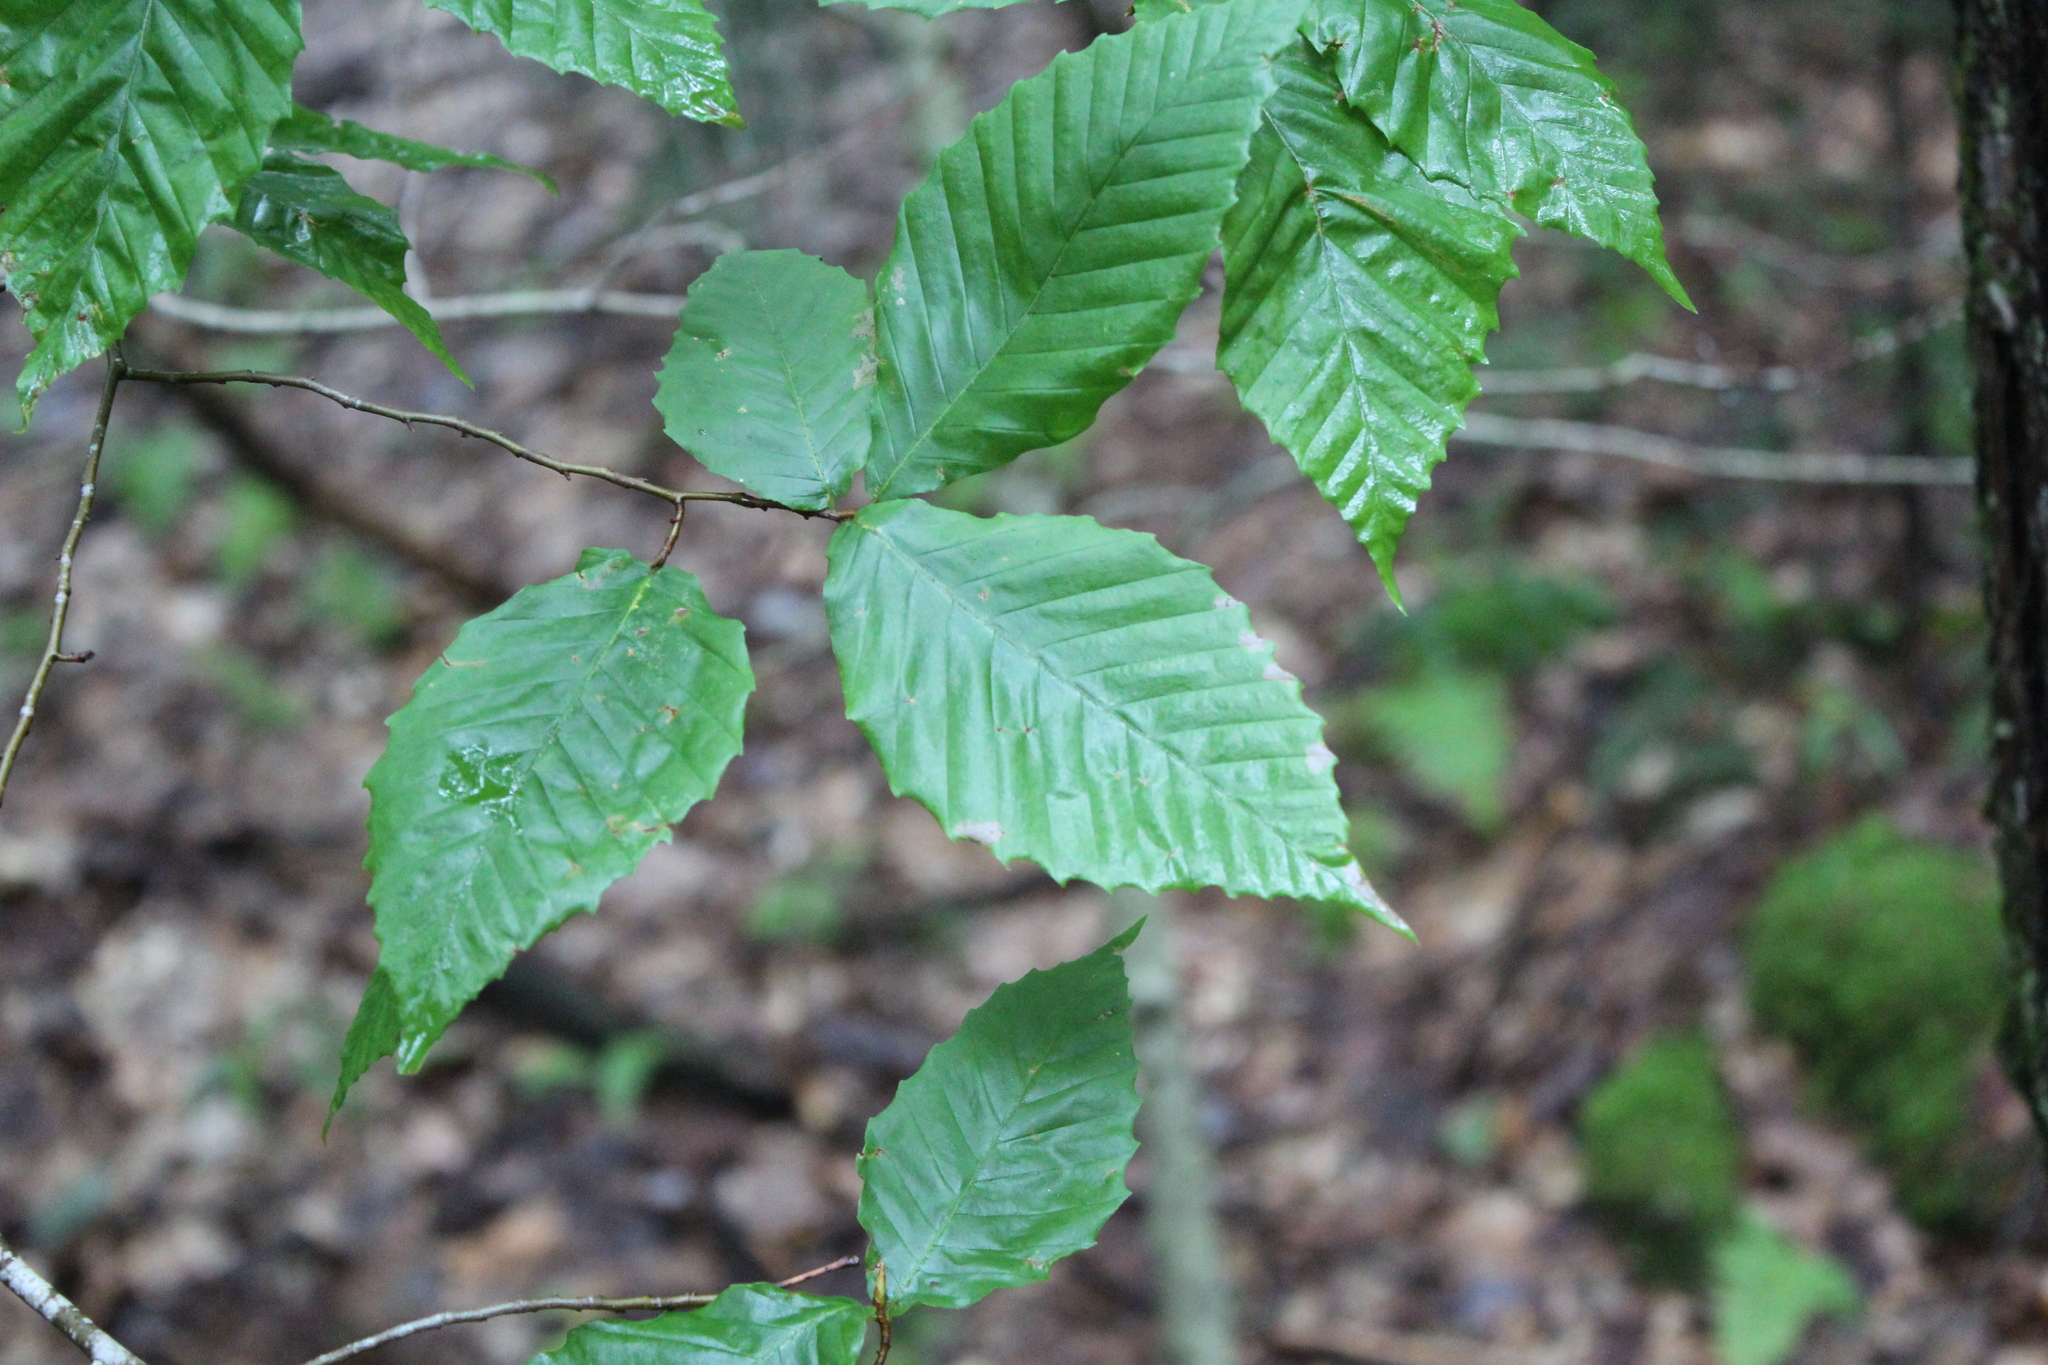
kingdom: Plantae
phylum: Tracheophyta
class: Magnoliopsida
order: Fagales
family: Fagaceae
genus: Fagus
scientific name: Fagus grandifolia
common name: American beech
